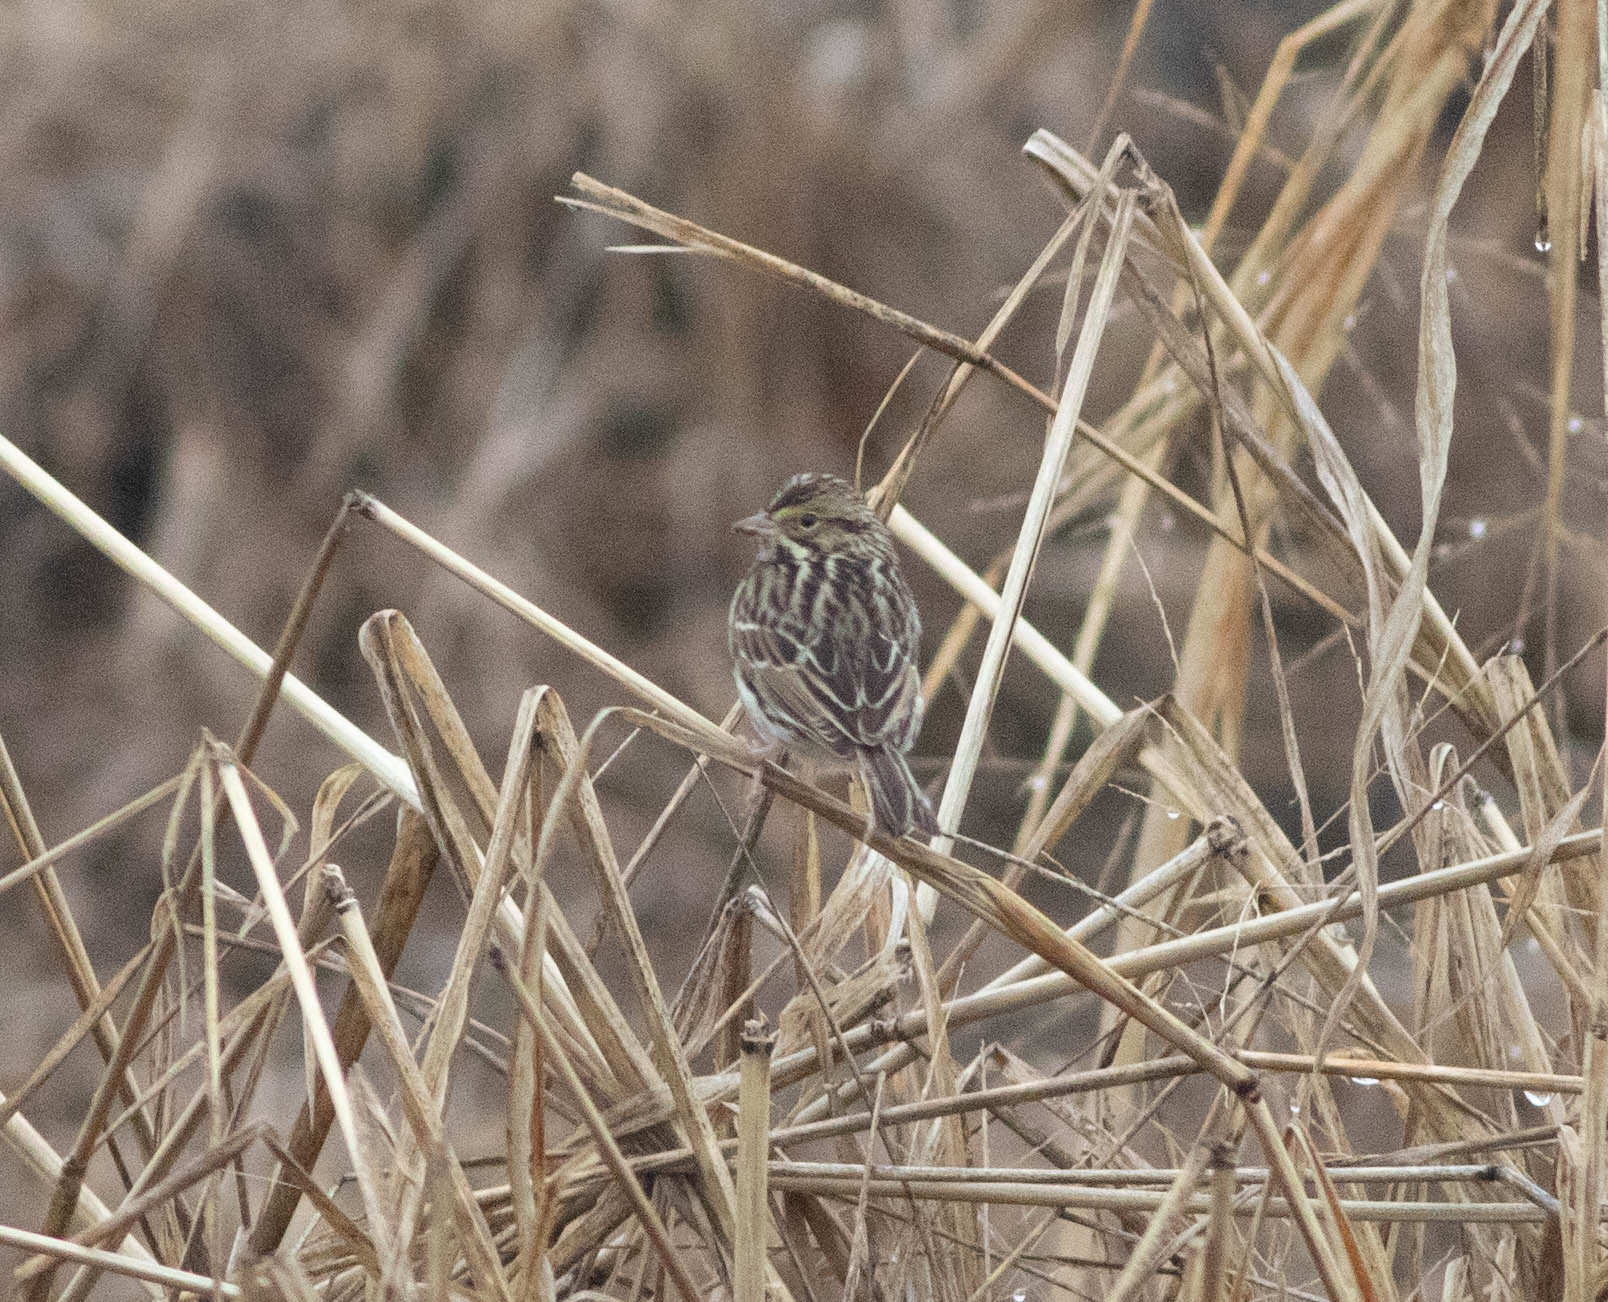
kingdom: Animalia
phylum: Chordata
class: Aves
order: Passeriformes
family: Passerellidae
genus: Passerculus
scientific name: Passerculus sandwichensis
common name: Savannah sparrow
